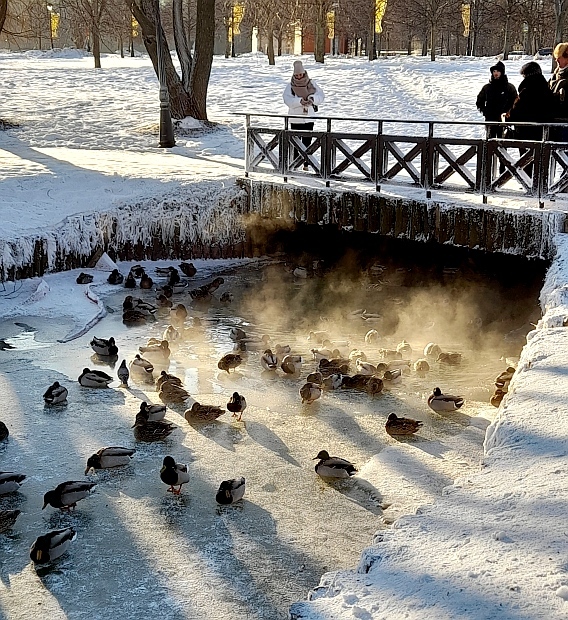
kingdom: Animalia
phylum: Chordata
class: Aves
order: Anseriformes
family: Anatidae
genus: Anas
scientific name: Anas platyrhynchos
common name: Mallard
